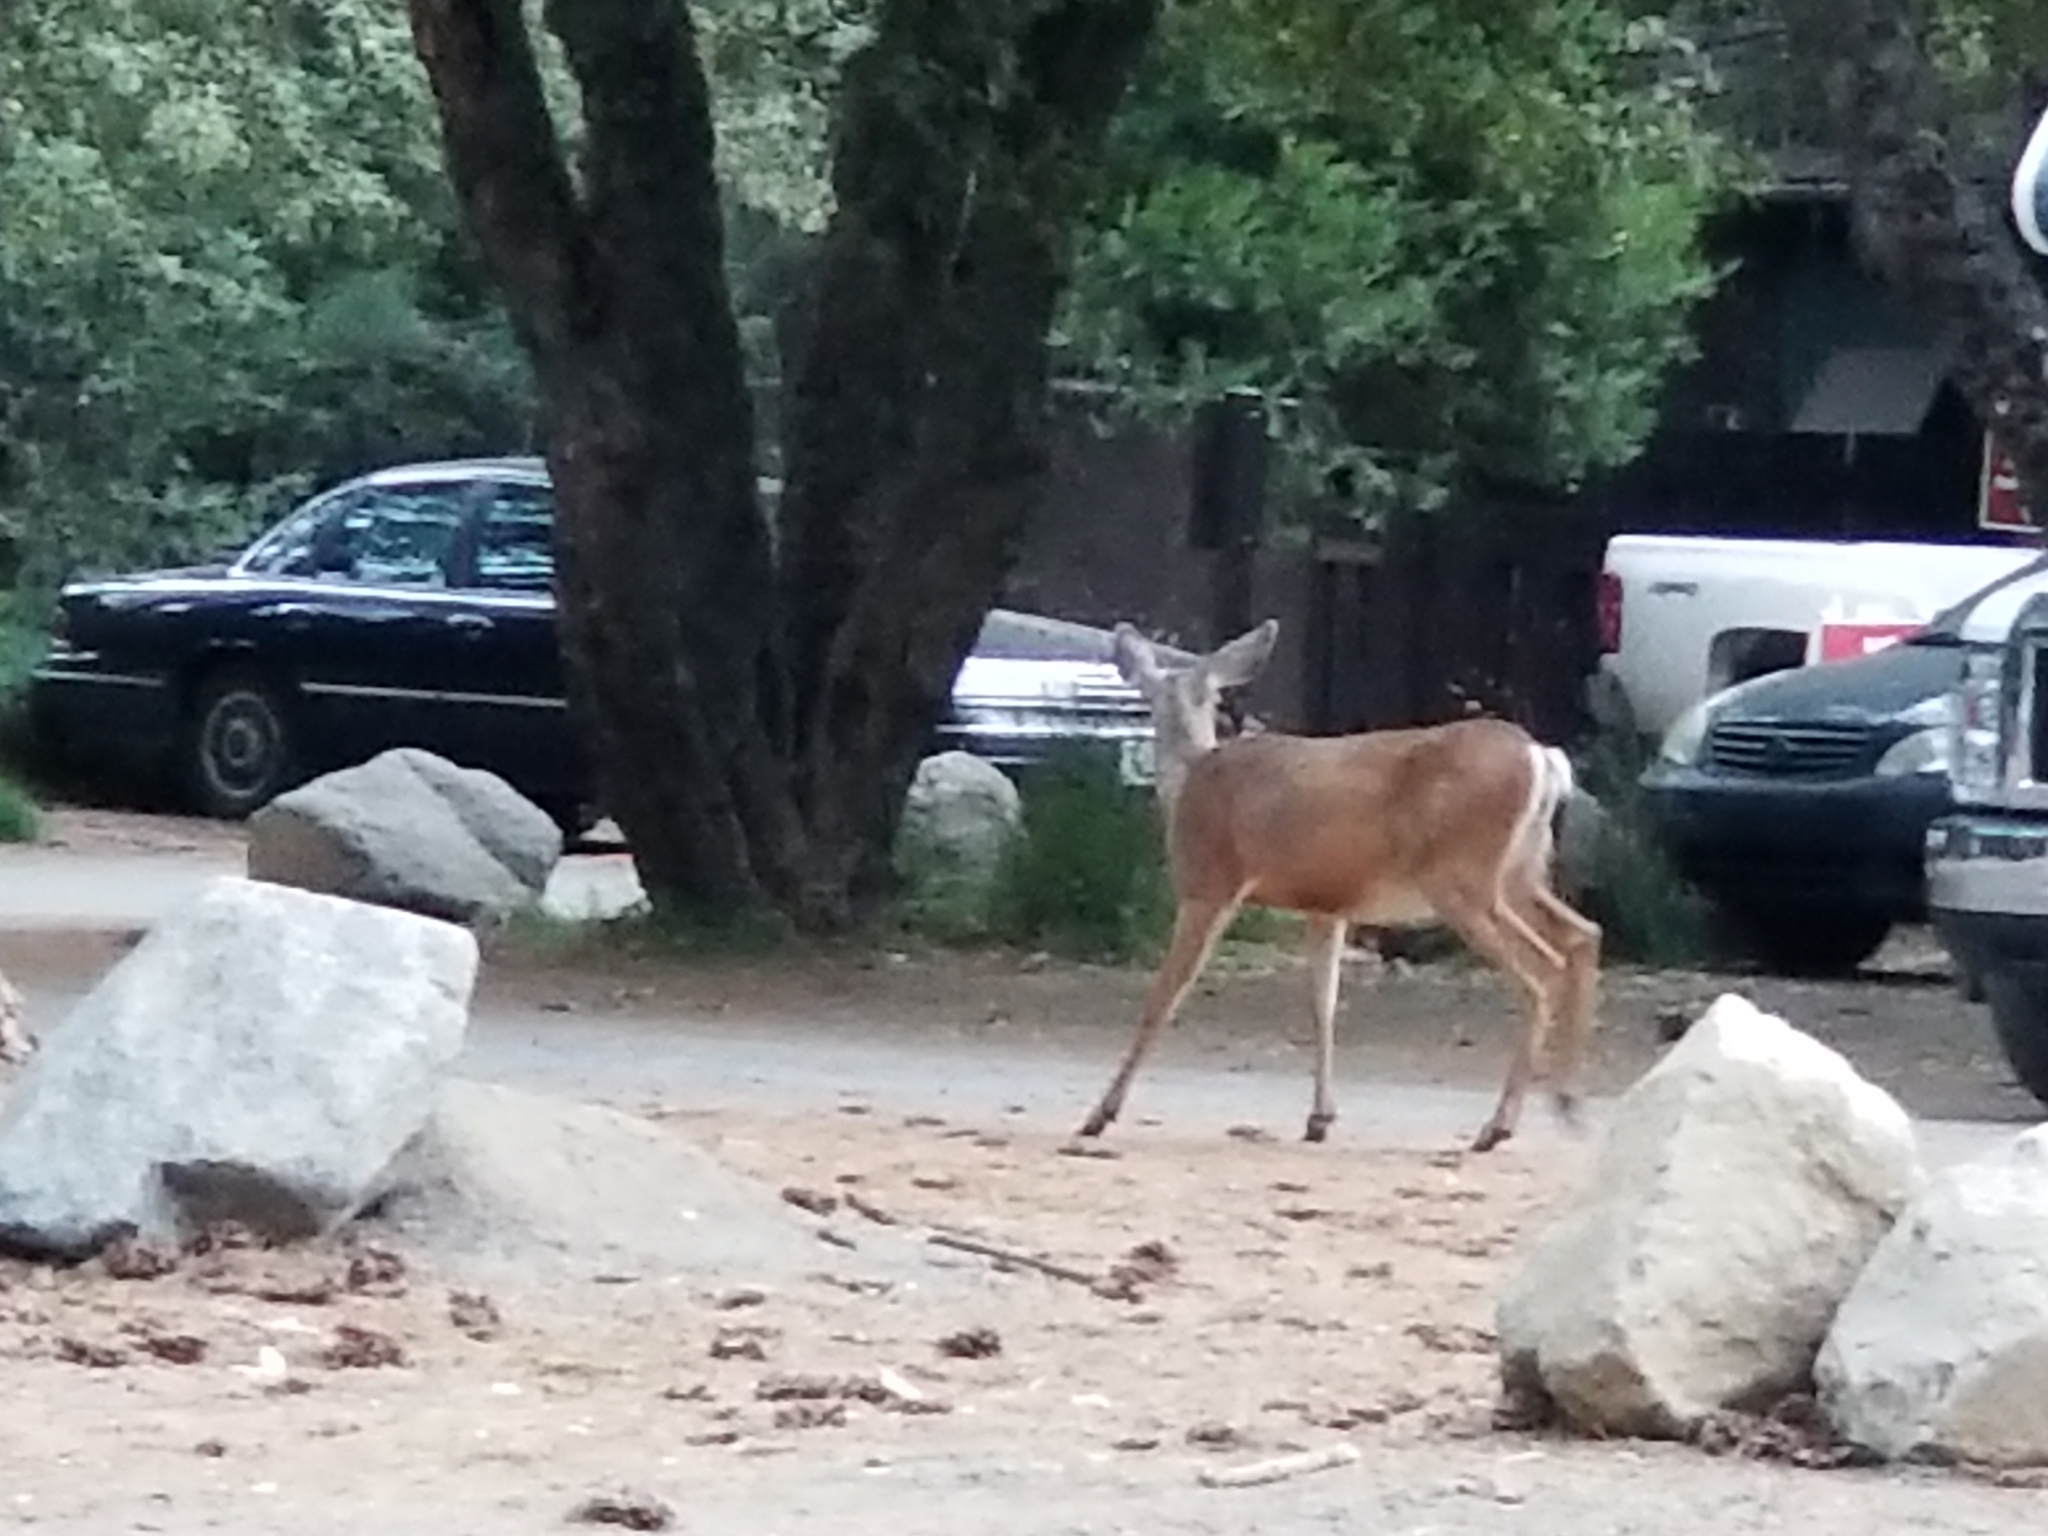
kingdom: Animalia
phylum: Chordata
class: Mammalia
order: Artiodactyla
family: Cervidae
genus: Odocoileus
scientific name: Odocoileus hemionus
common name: Mule deer
